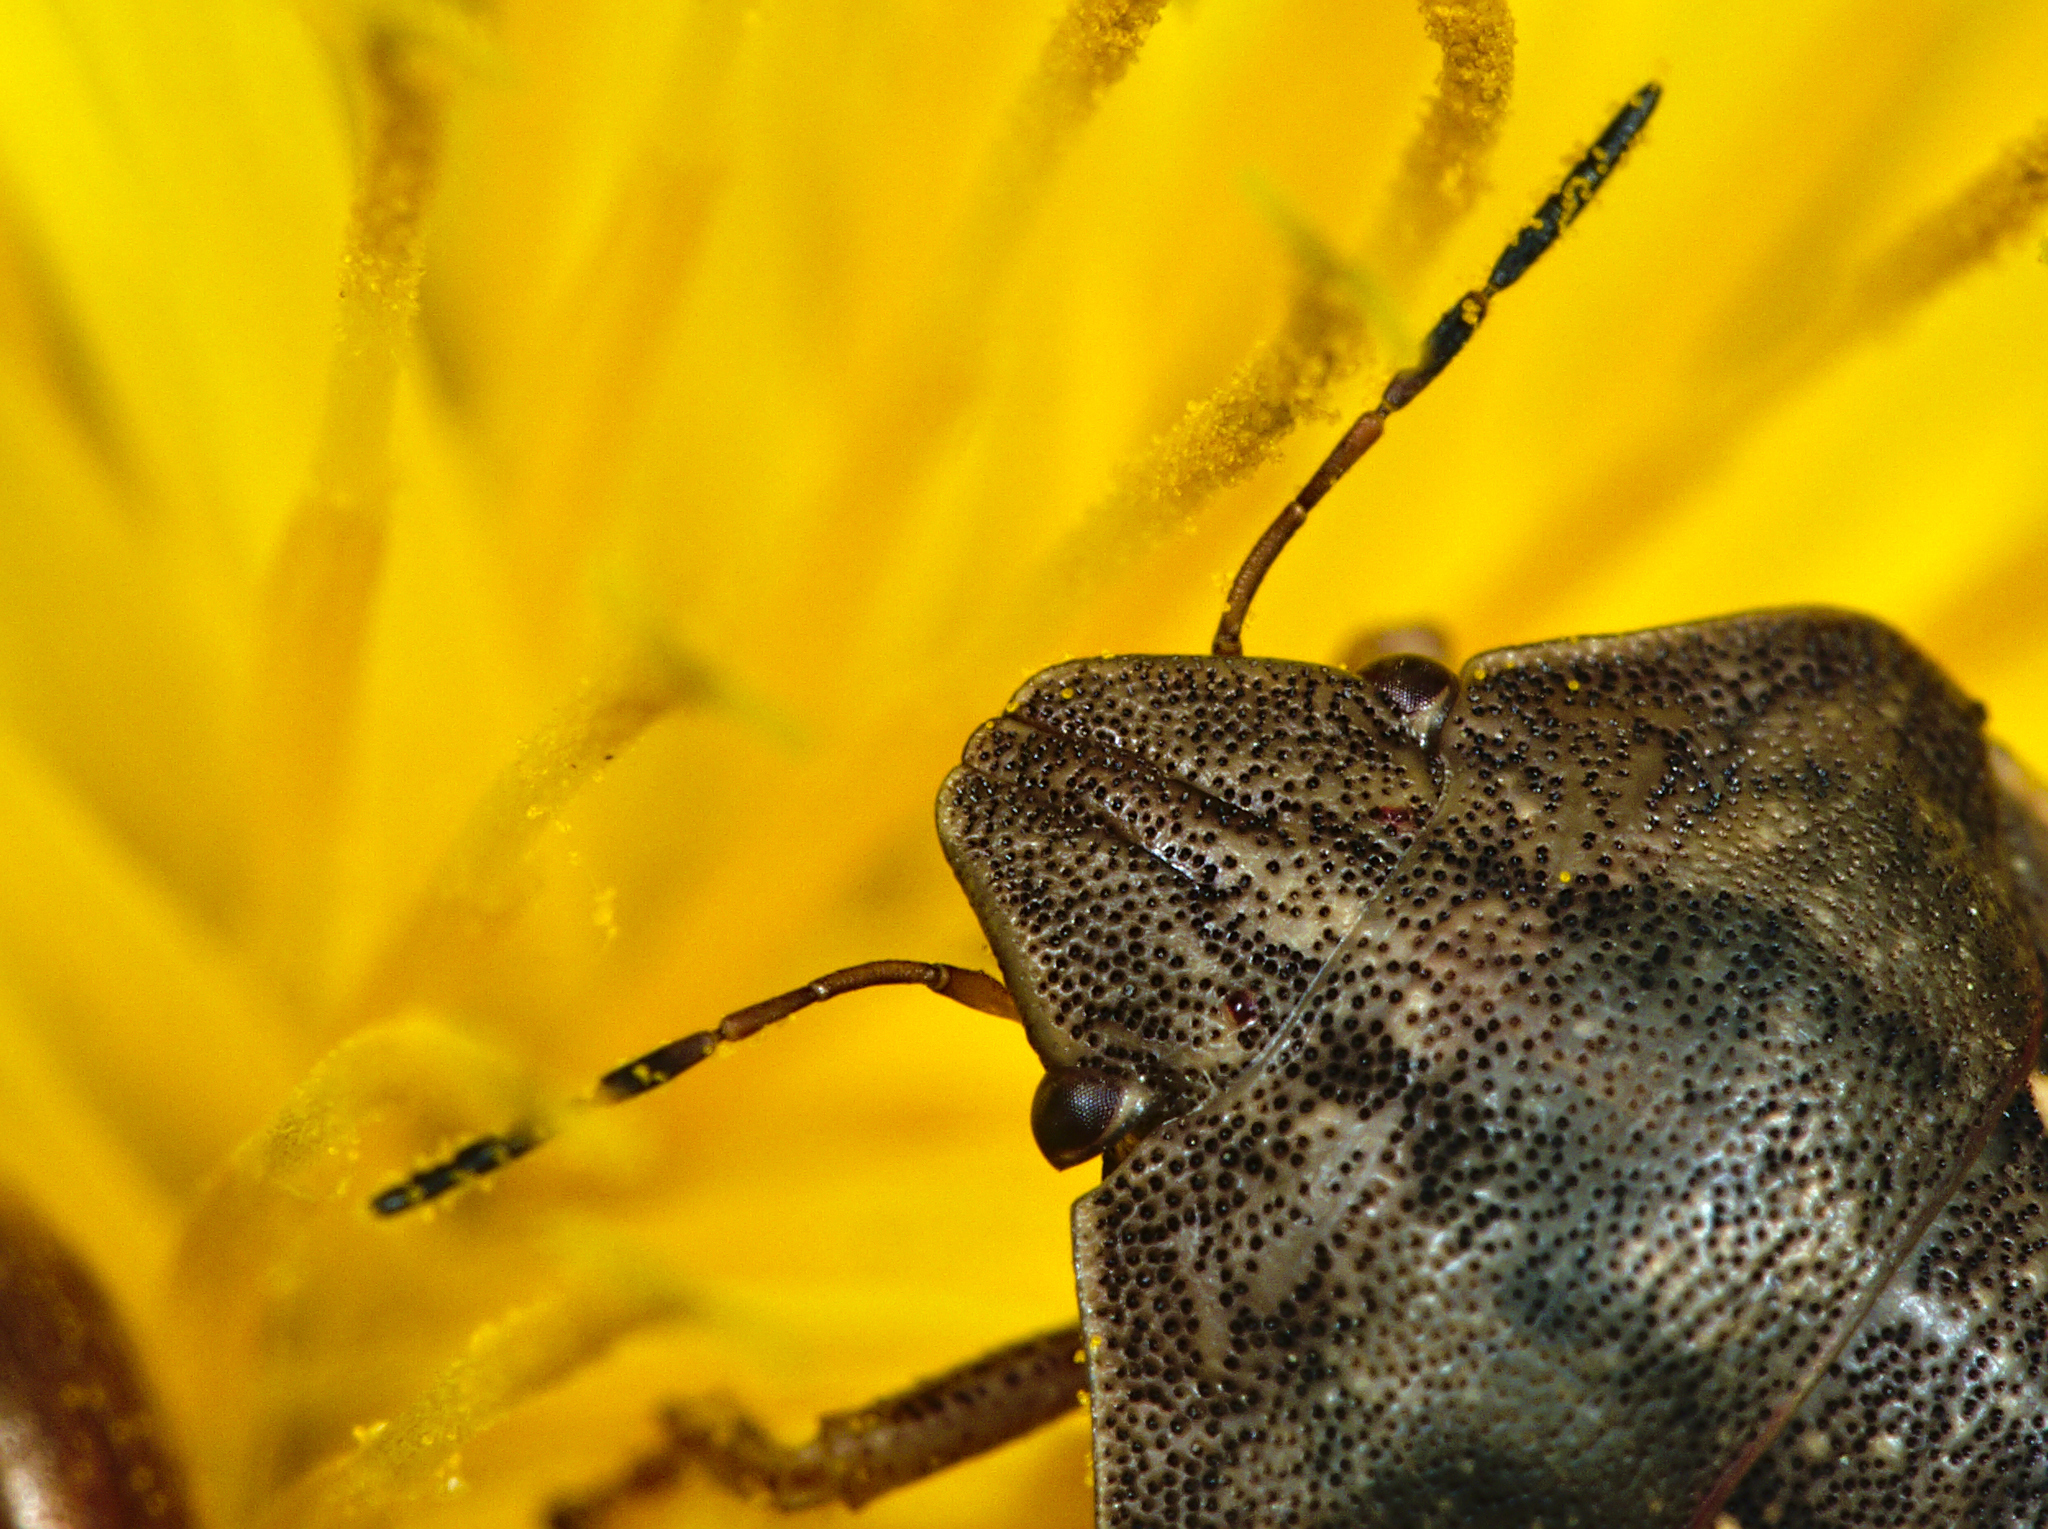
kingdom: Animalia
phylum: Arthropoda
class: Insecta
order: Hemiptera
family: Scutelleridae
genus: Eurygaster
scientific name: Eurygaster testudinaria
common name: Tortoise bug
